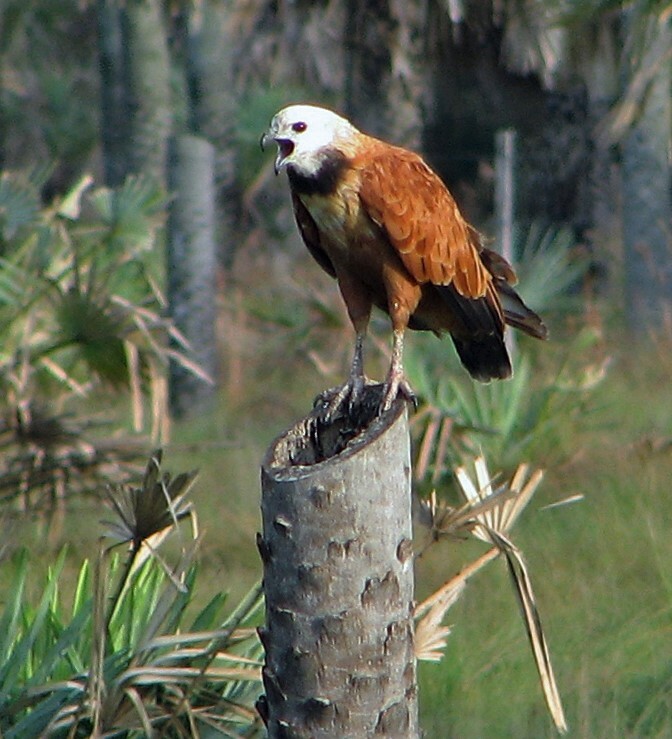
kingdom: Animalia
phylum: Chordata
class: Aves
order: Accipitriformes
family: Accipitridae
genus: Busarellus
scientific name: Busarellus nigricollis
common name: Black-collared hawk
